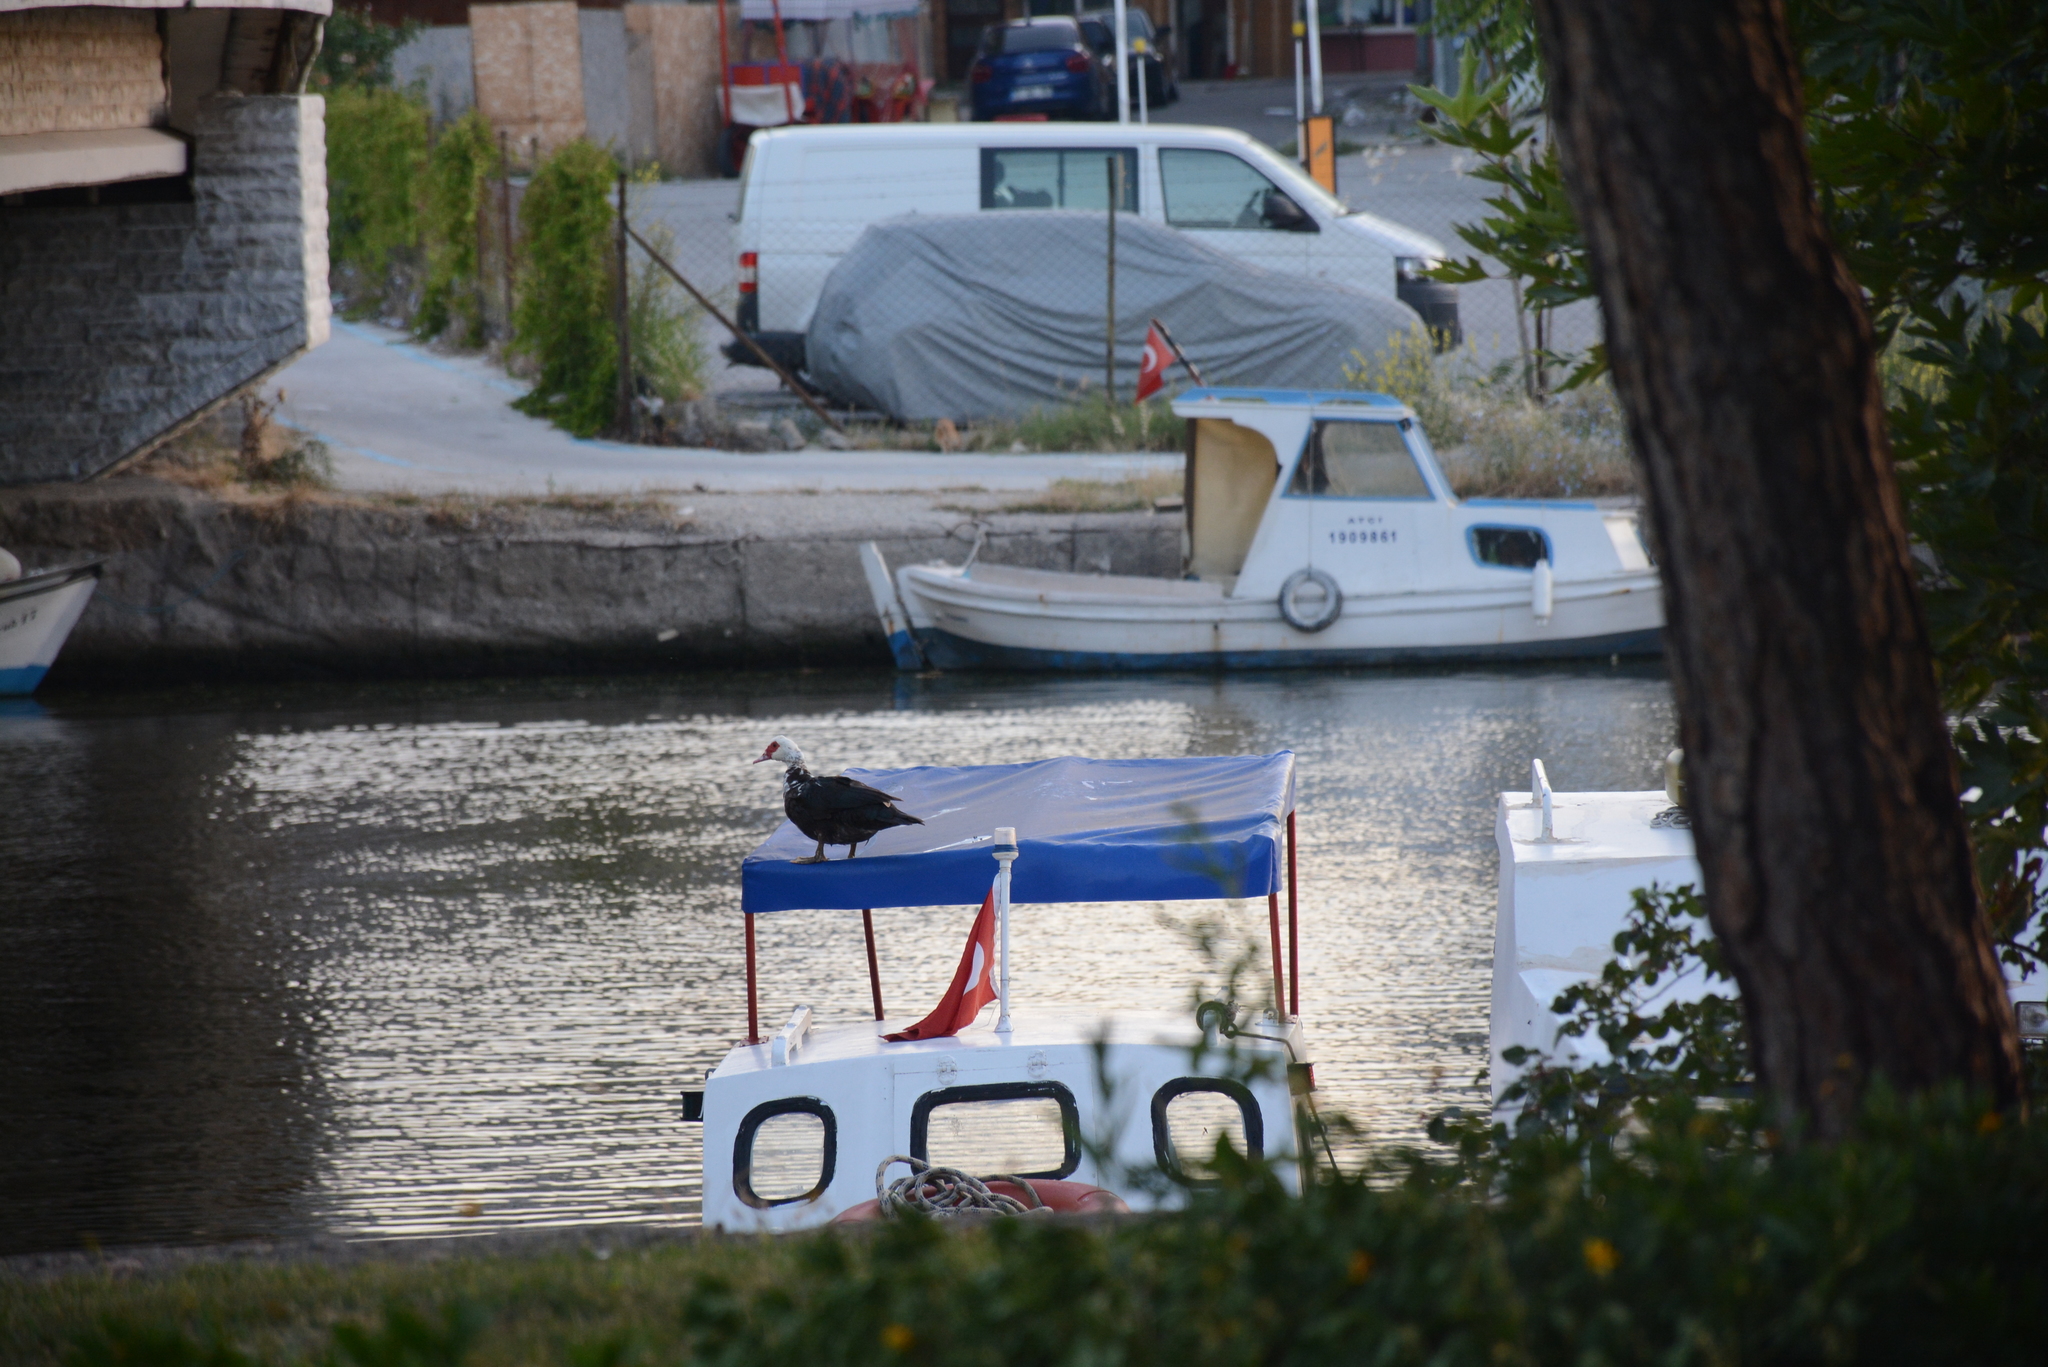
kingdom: Animalia
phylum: Chordata
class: Aves
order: Anseriformes
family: Anatidae
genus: Cairina
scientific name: Cairina moschata
